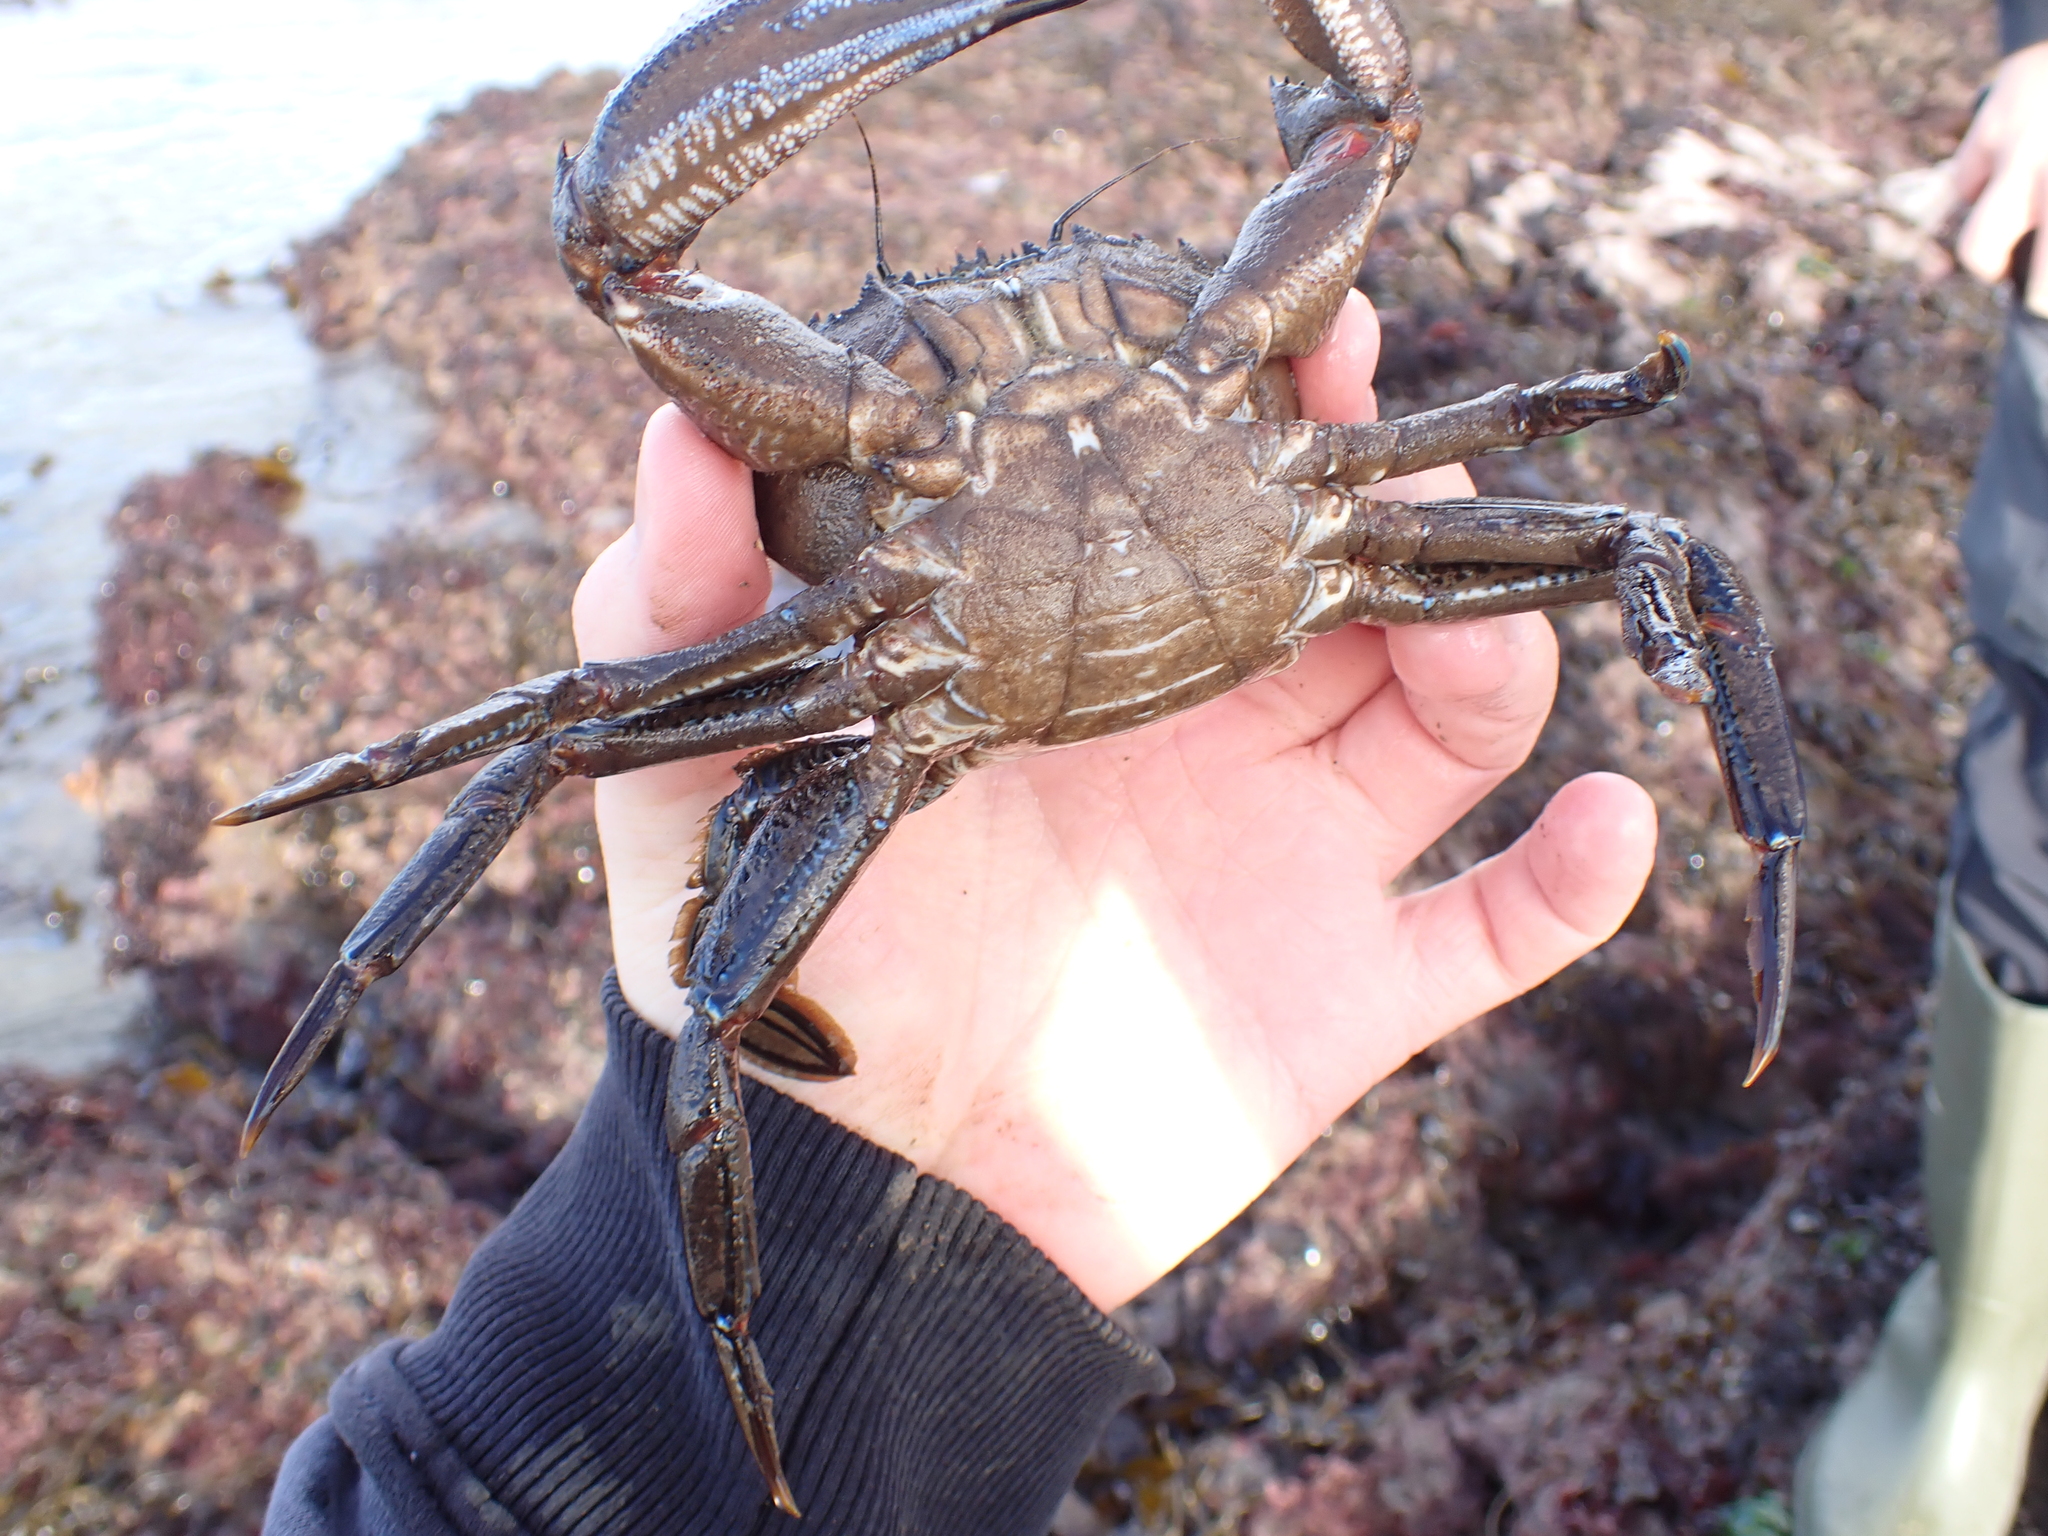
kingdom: Animalia
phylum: Arthropoda
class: Malacostraca
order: Decapoda
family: Polybiidae
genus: Necora
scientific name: Necora puber
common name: Velvet swimming crab
